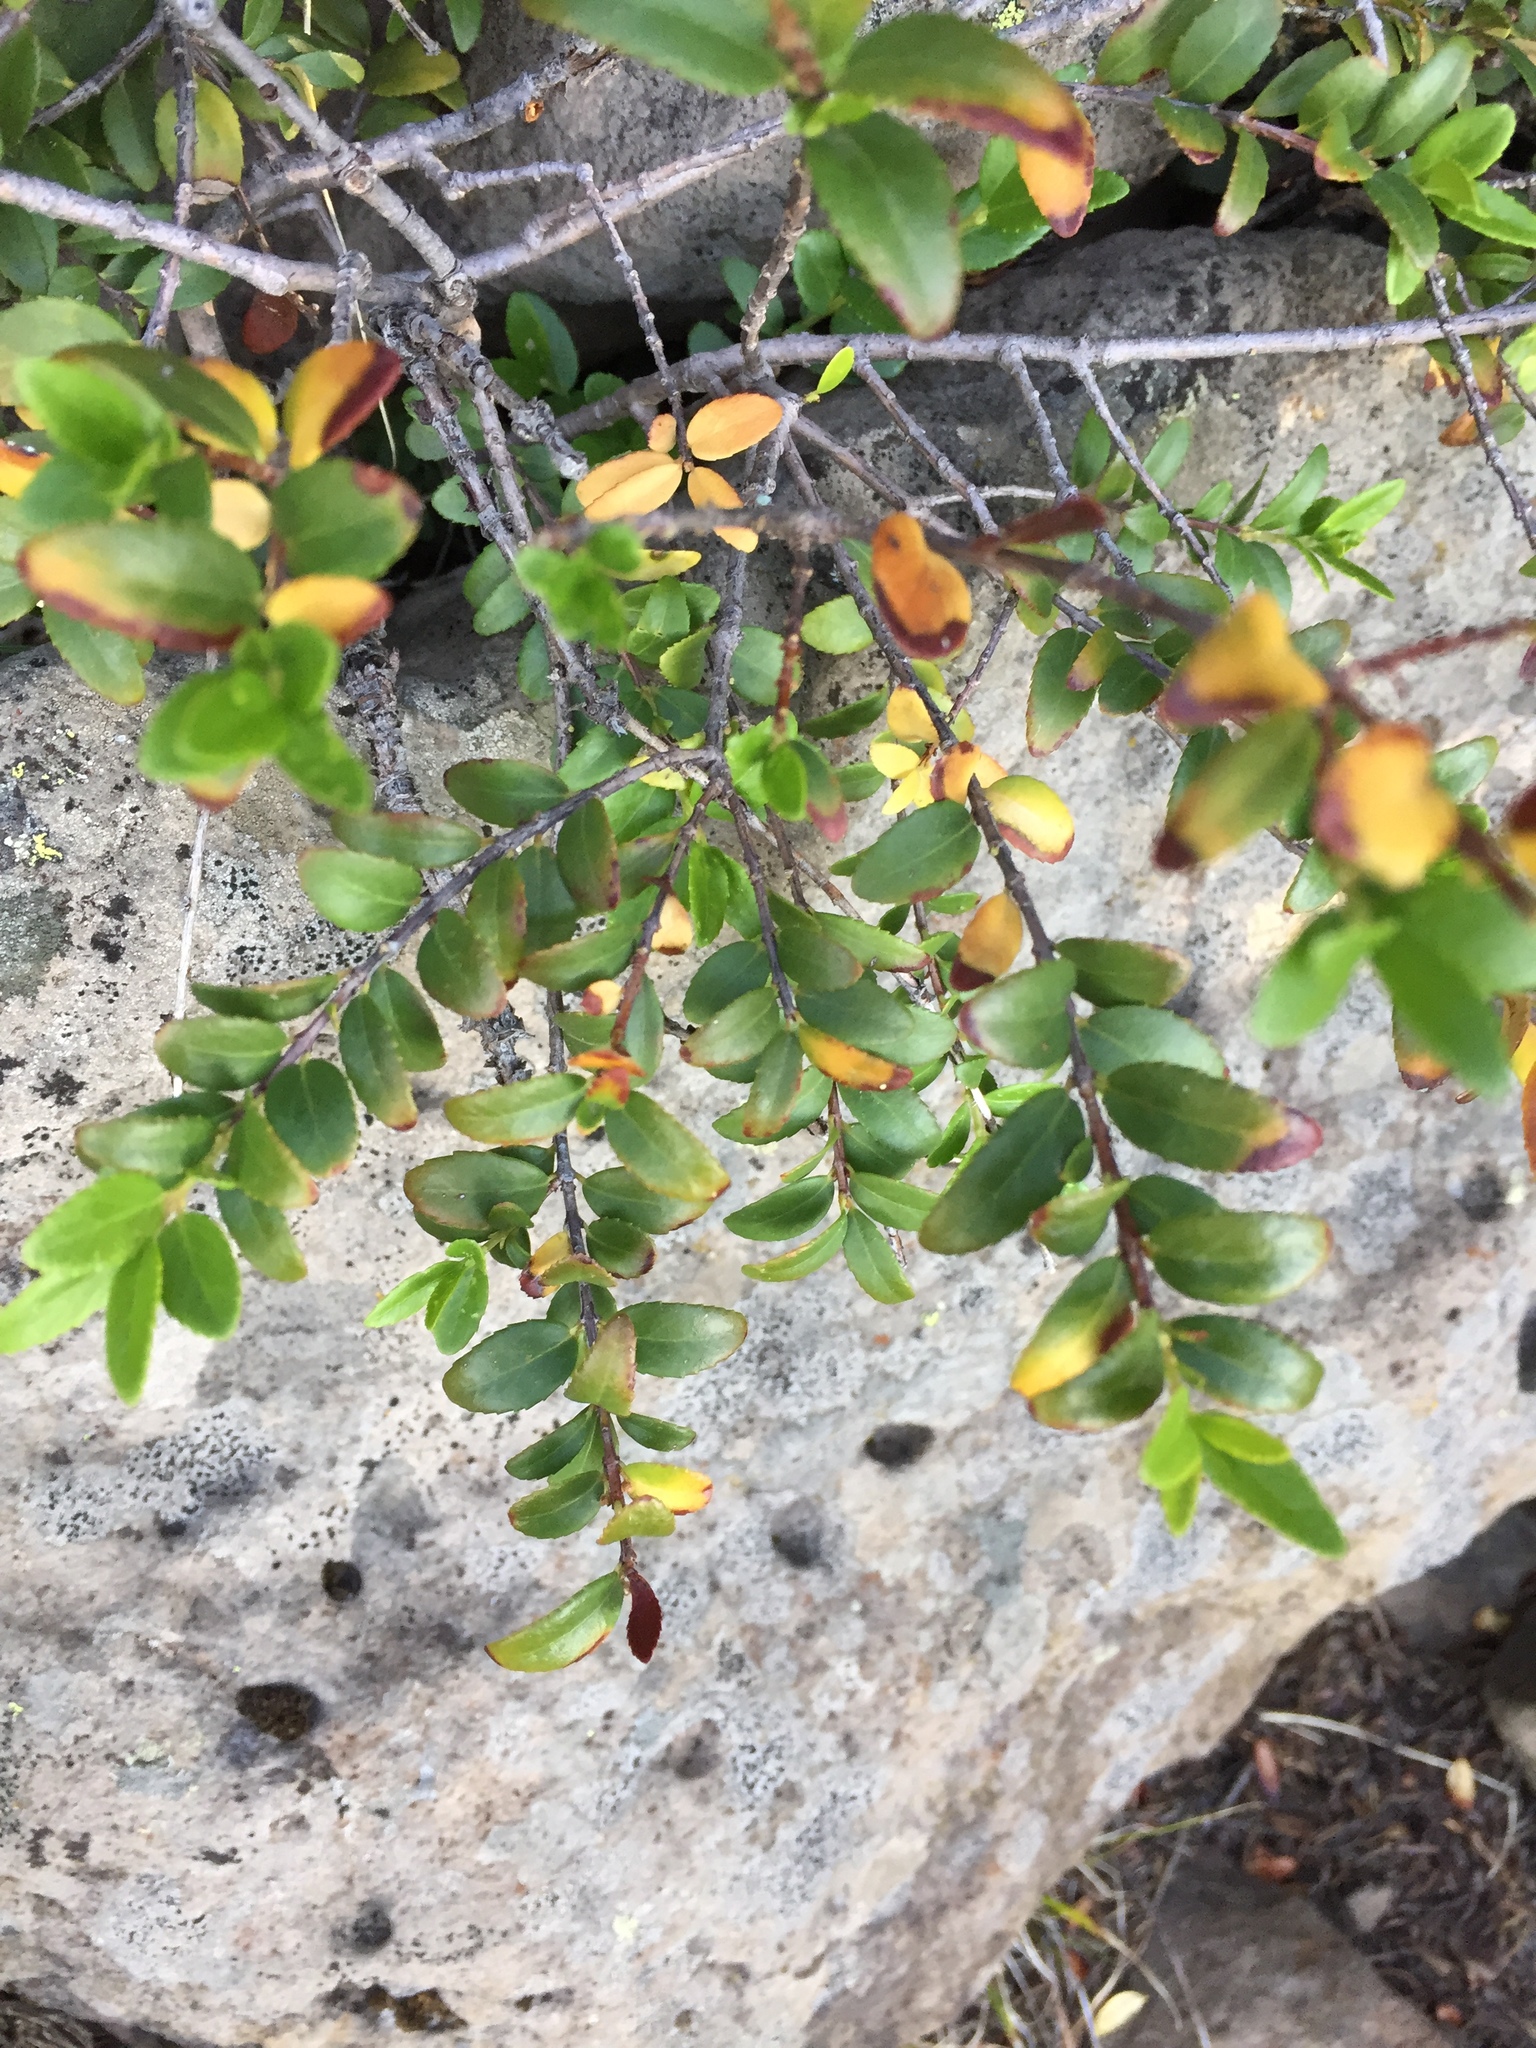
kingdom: Plantae
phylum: Tracheophyta
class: Magnoliopsida
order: Celastrales
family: Celastraceae
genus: Paxistima
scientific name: Paxistima myrsinites
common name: Mountain-lover
